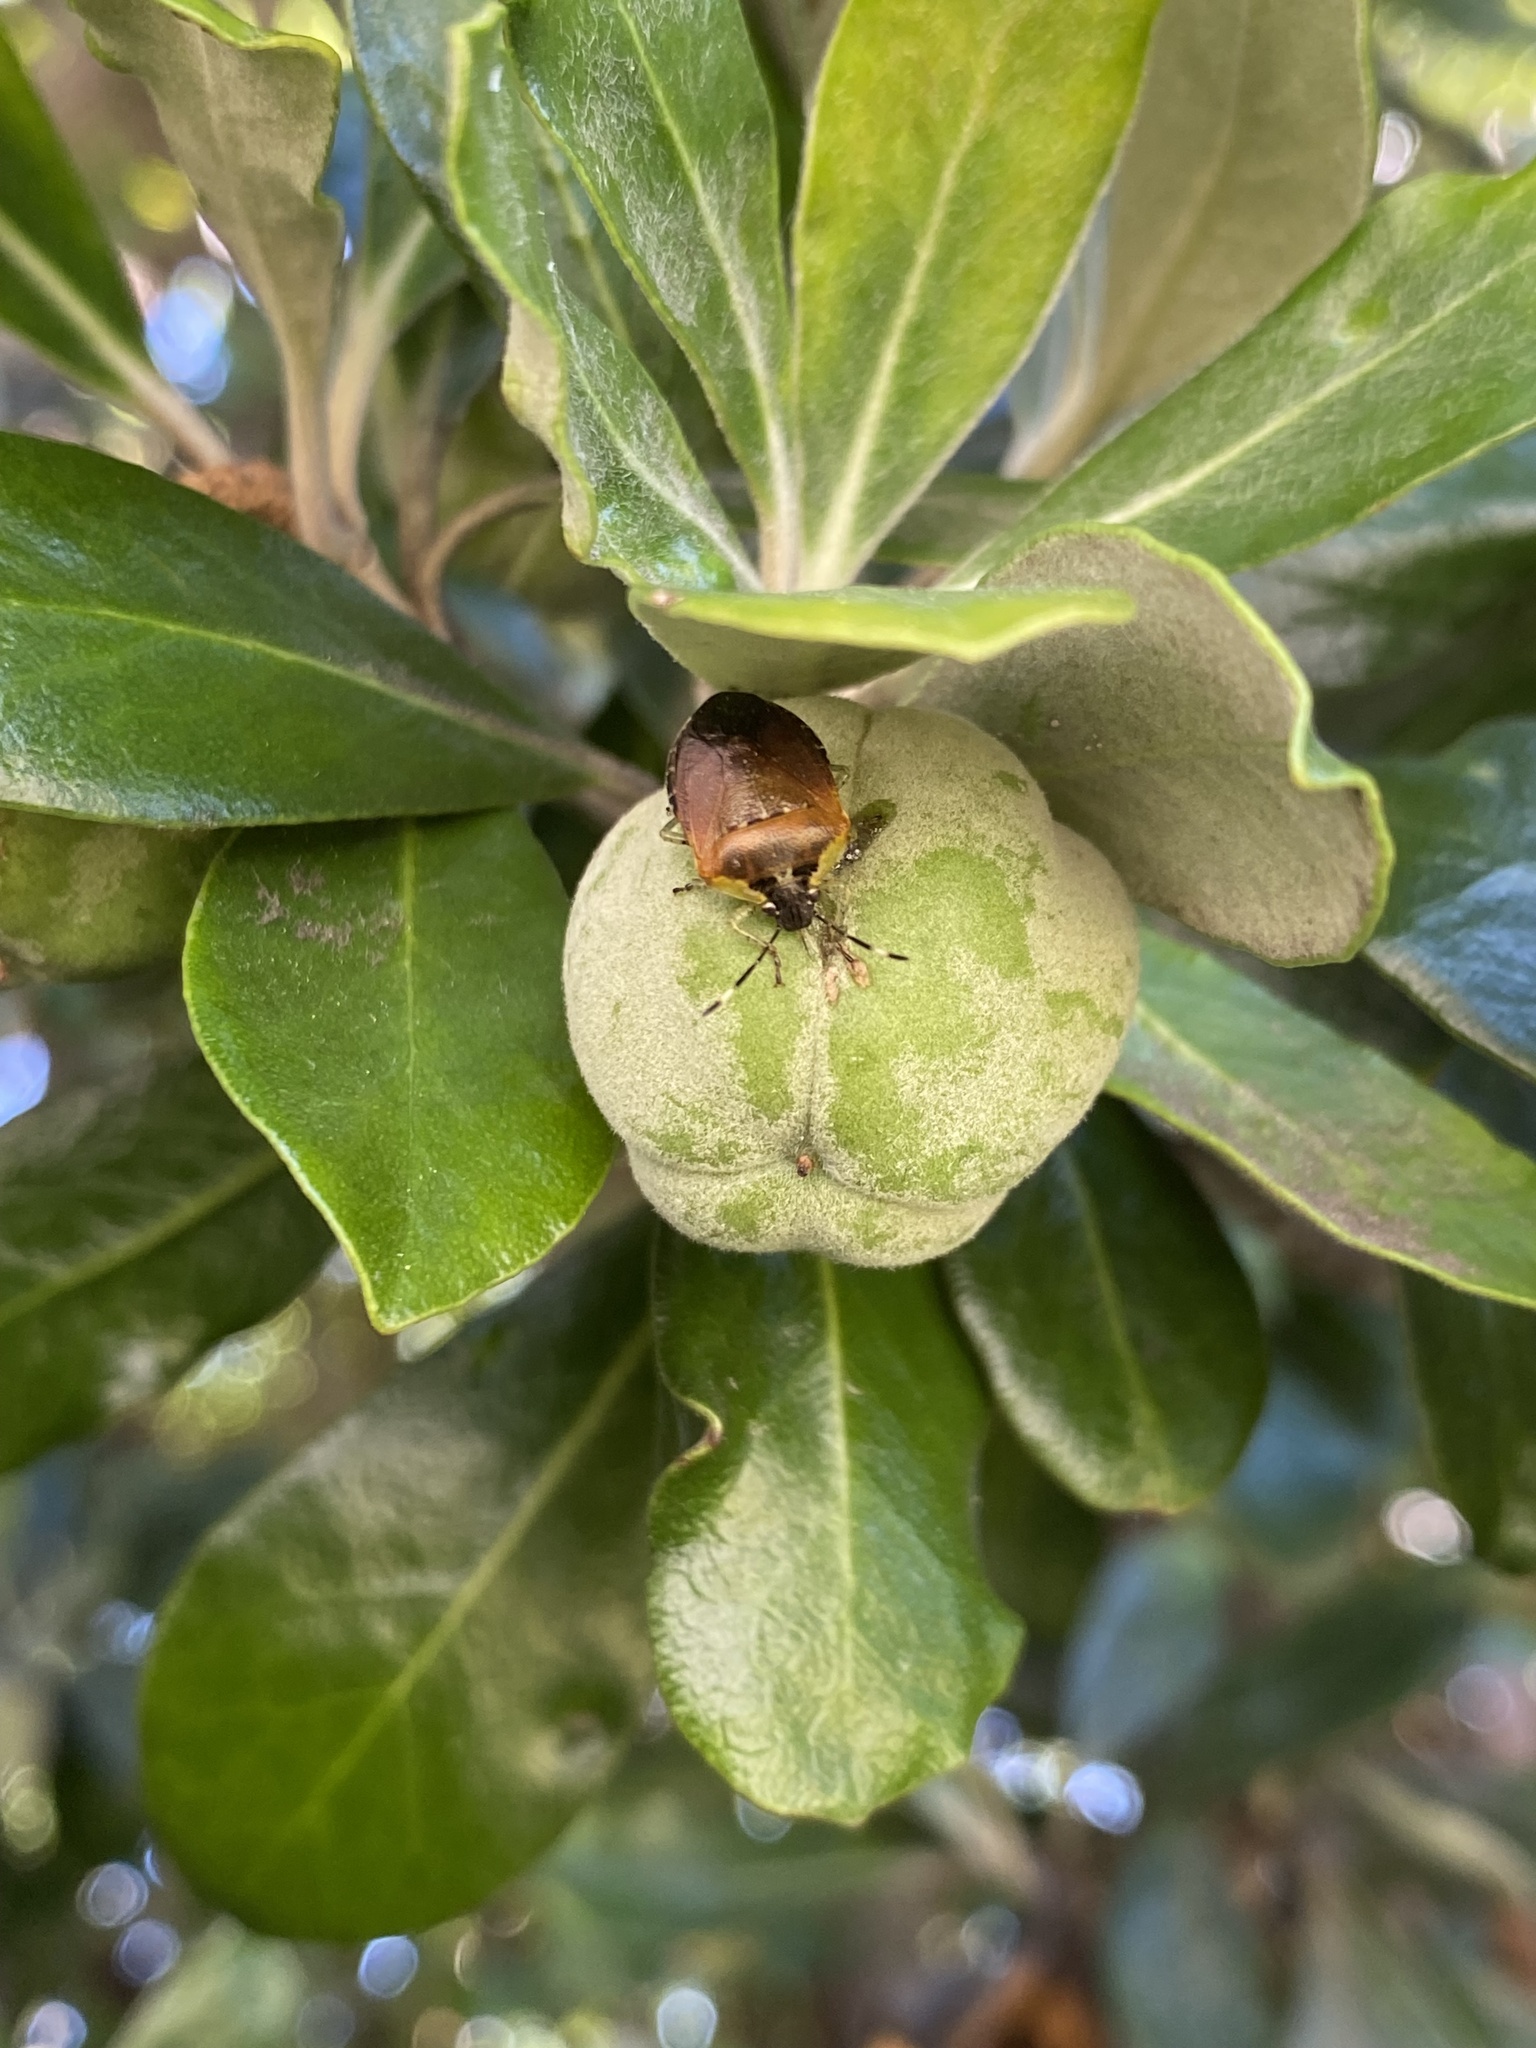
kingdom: Animalia
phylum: Arthropoda
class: Insecta
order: Hemiptera
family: Pentatomidae
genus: Monteithiella
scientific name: Monteithiella
